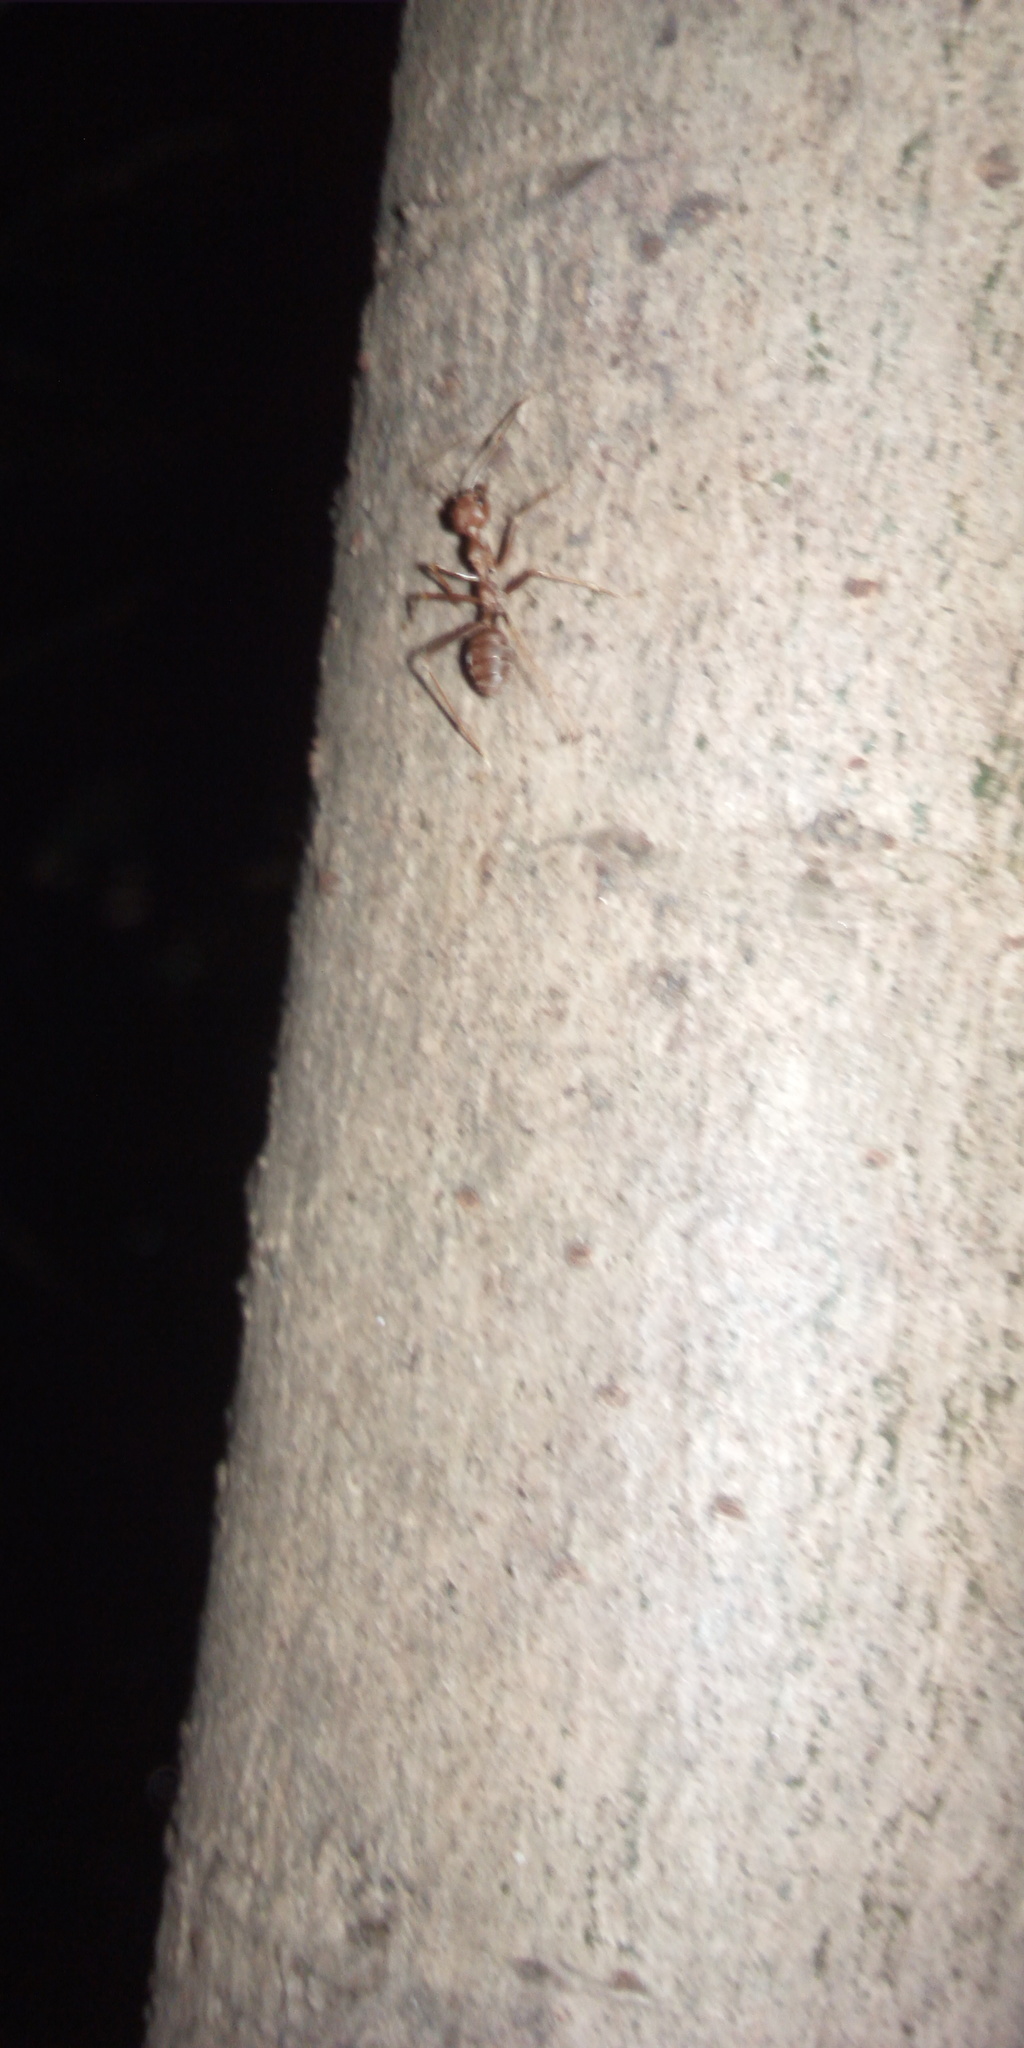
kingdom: Animalia
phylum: Arthropoda
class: Insecta
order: Hymenoptera
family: Formicidae
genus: Oecophylla
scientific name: Oecophylla smaragdina
